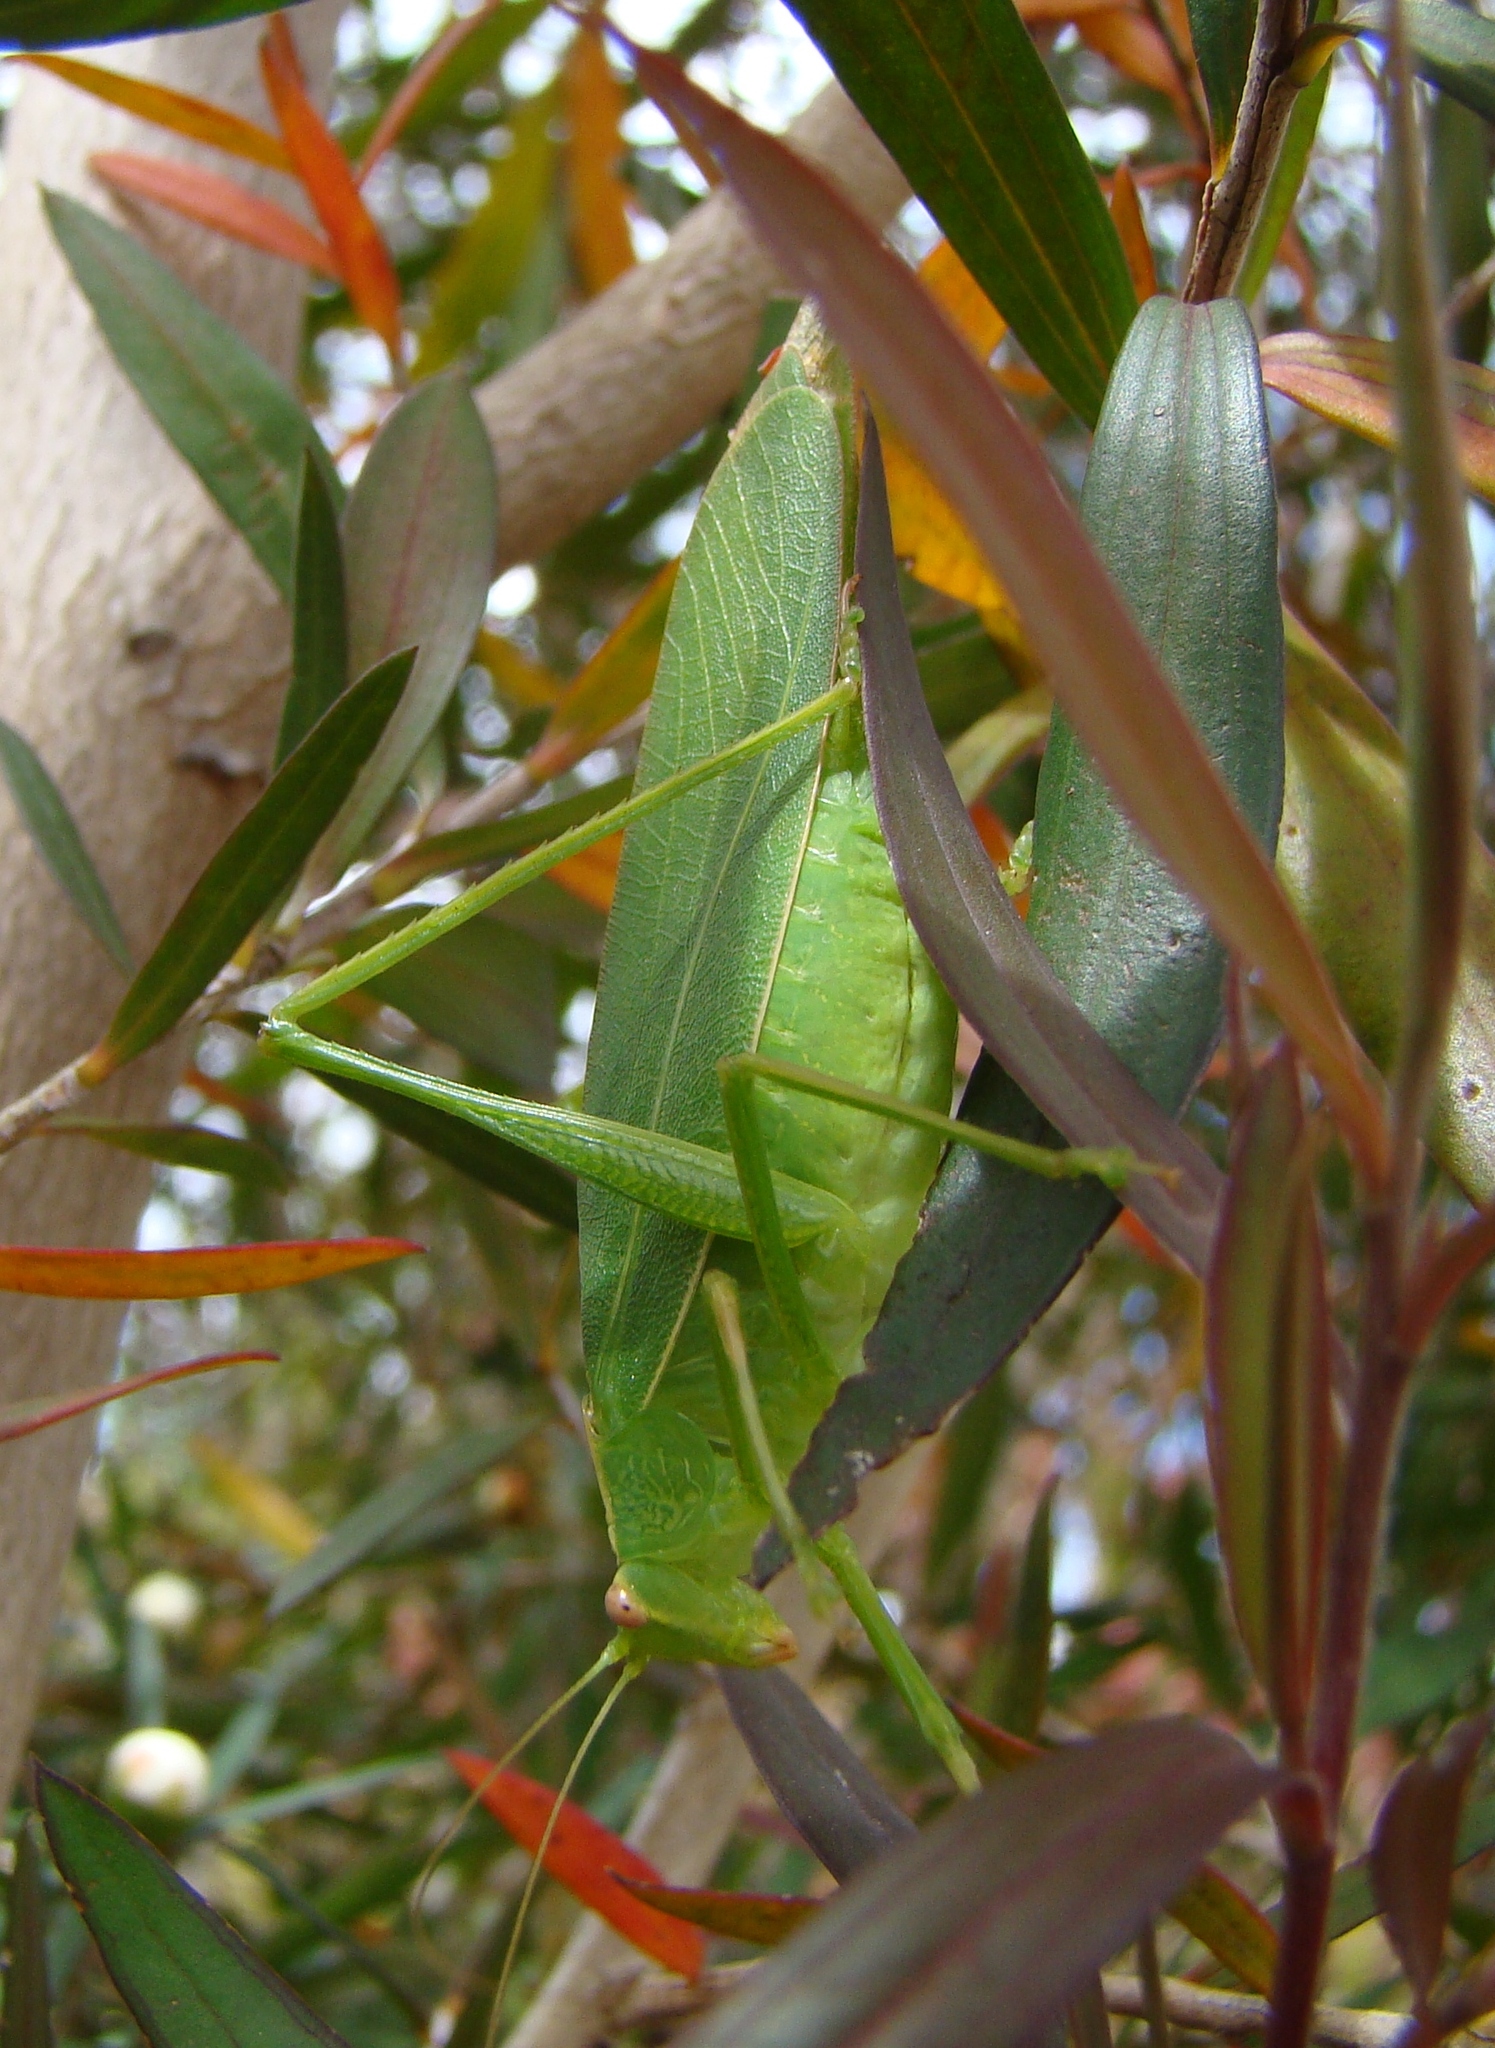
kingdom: Animalia
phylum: Arthropoda
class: Insecta
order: Orthoptera
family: Tettigoniidae
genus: Caedicia
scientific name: Caedicia simplex
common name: Common garden katydid
